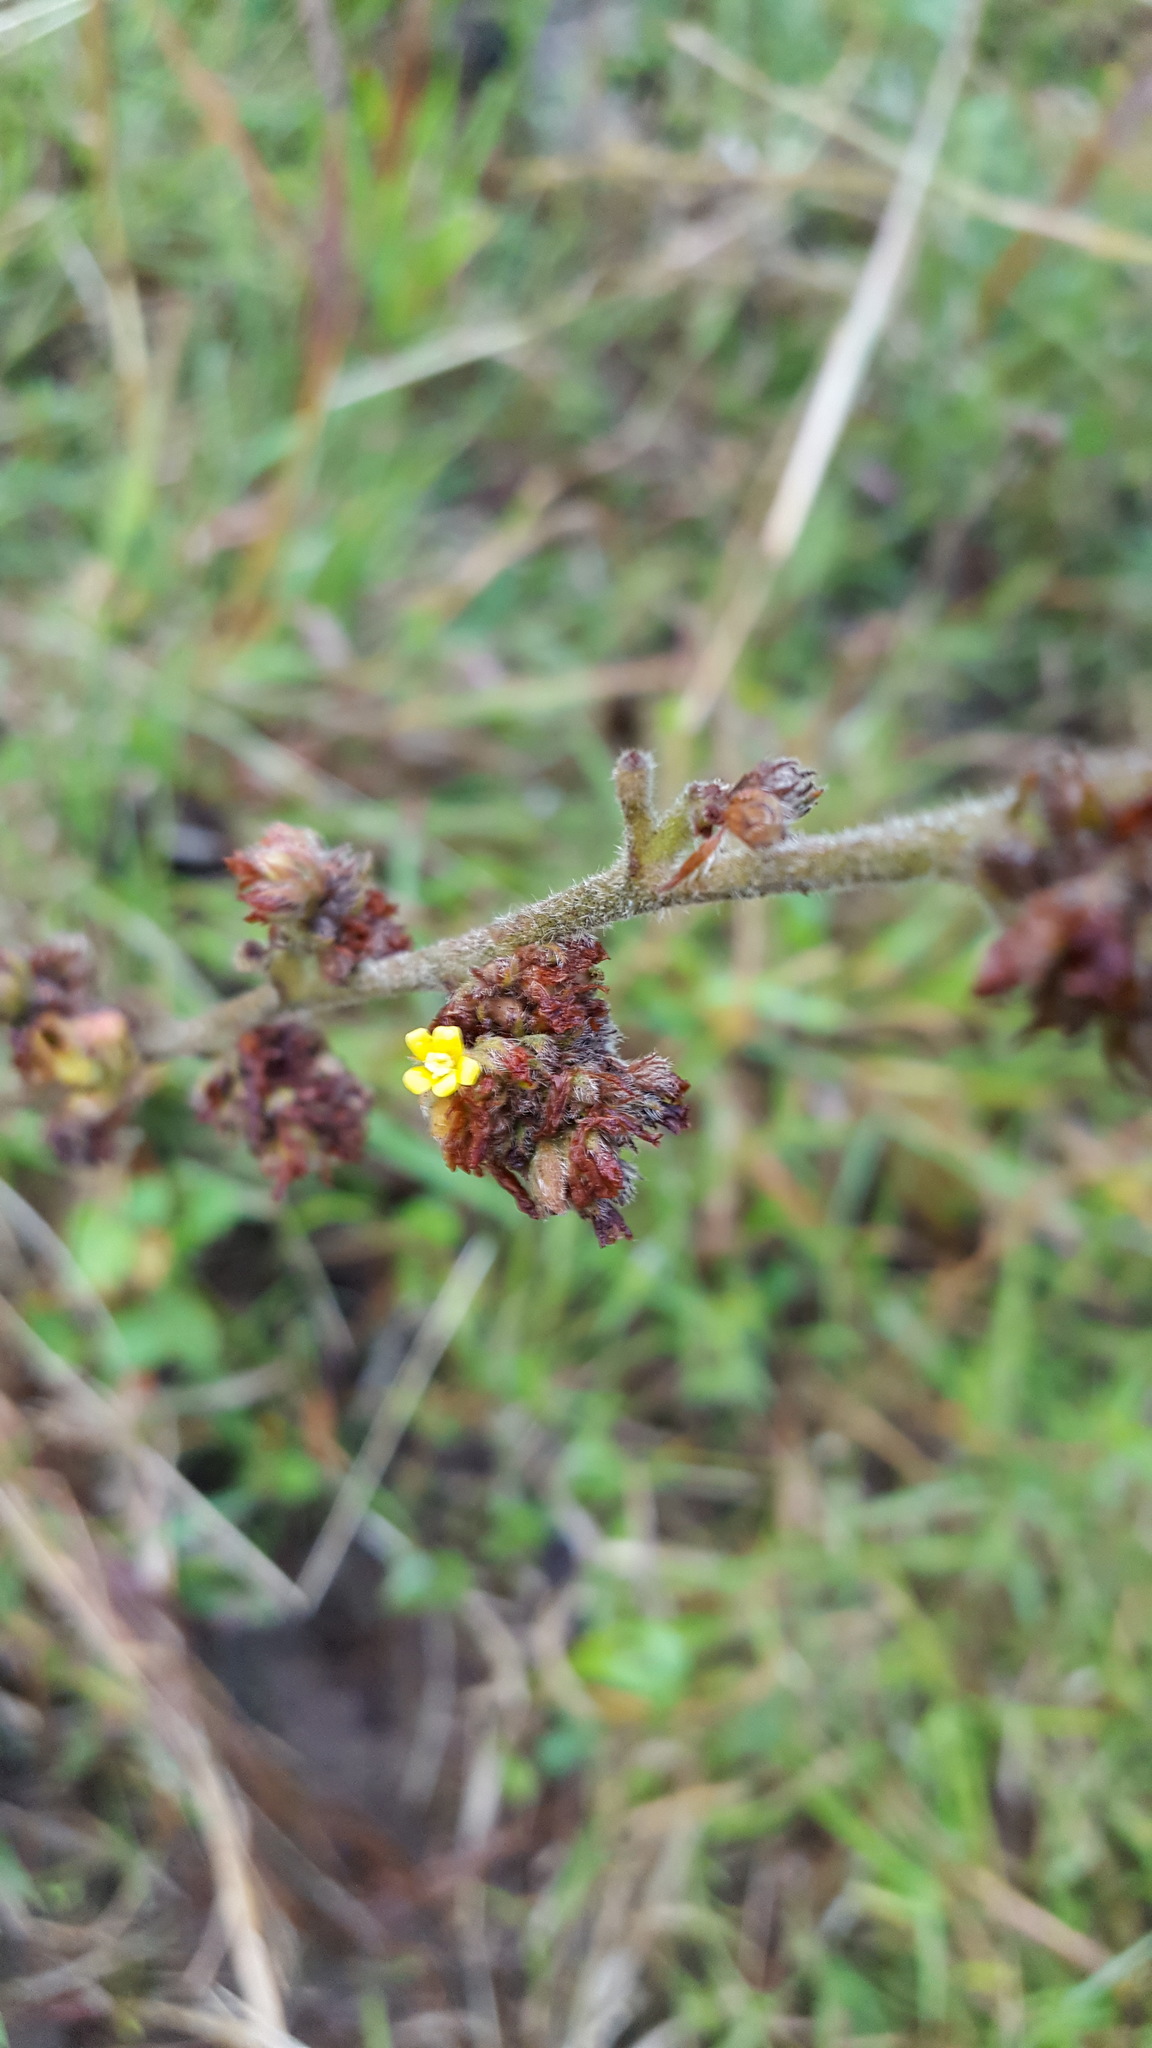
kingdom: Plantae
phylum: Tracheophyta
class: Magnoliopsida
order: Malvales
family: Malvaceae
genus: Waltheria
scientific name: Waltheria indica
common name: Leather-coat
